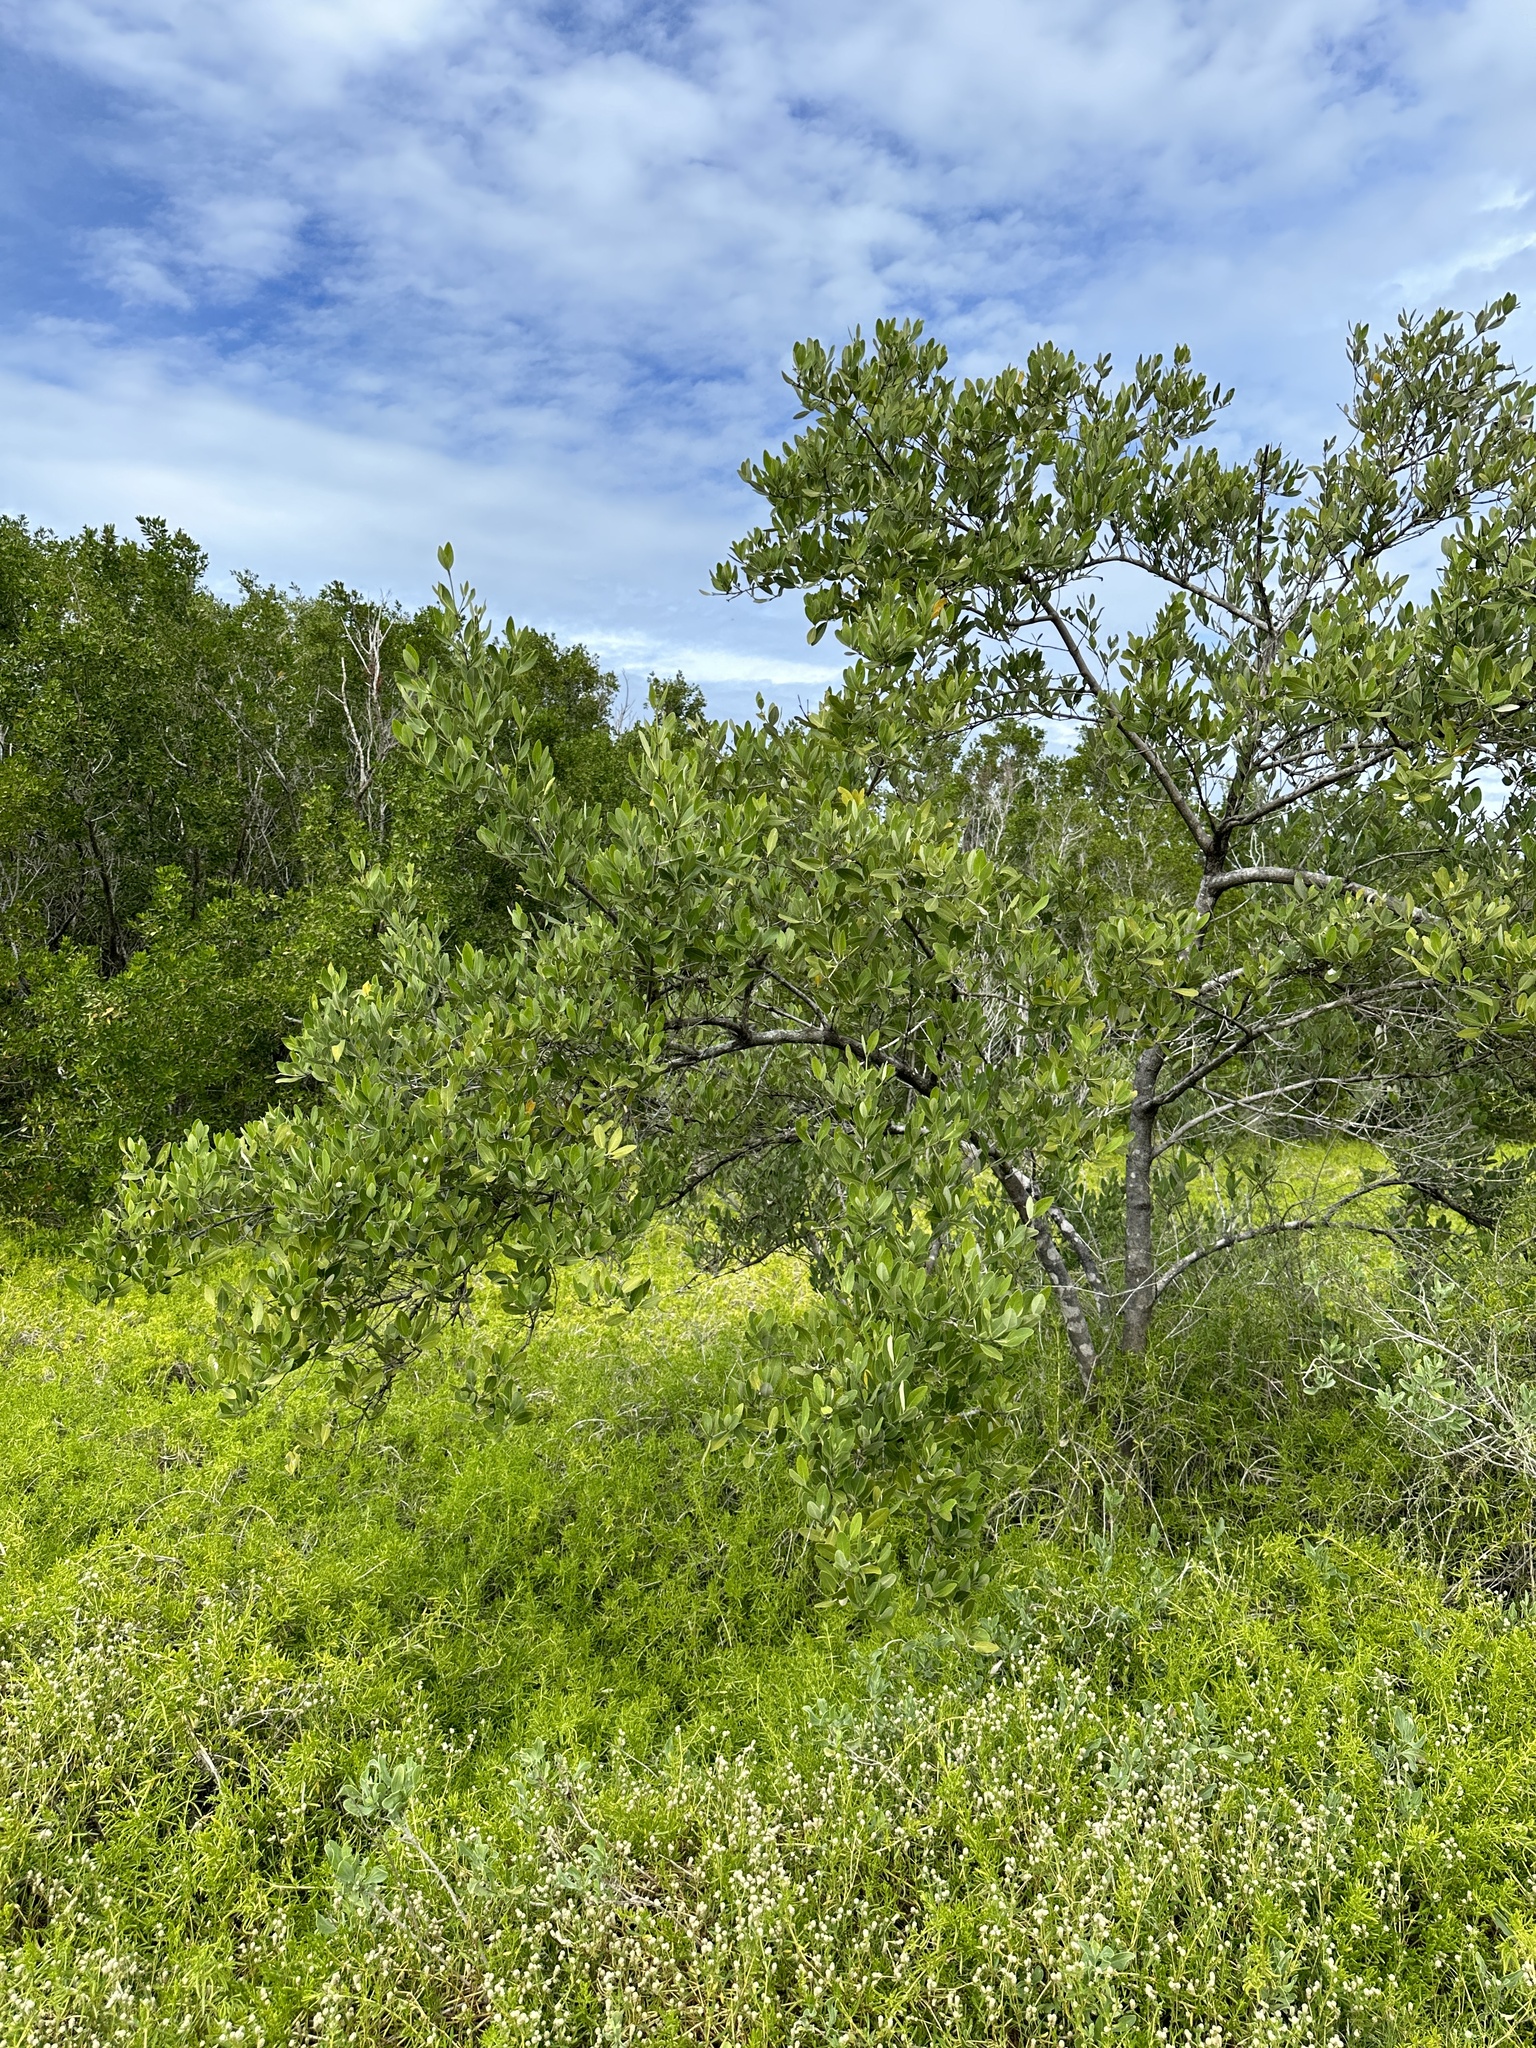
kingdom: Plantae
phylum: Tracheophyta
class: Magnoliopsida
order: Lamiales
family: Acanthaceae
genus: Avicennia
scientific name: Avicennia germinans
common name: Black mangrove
